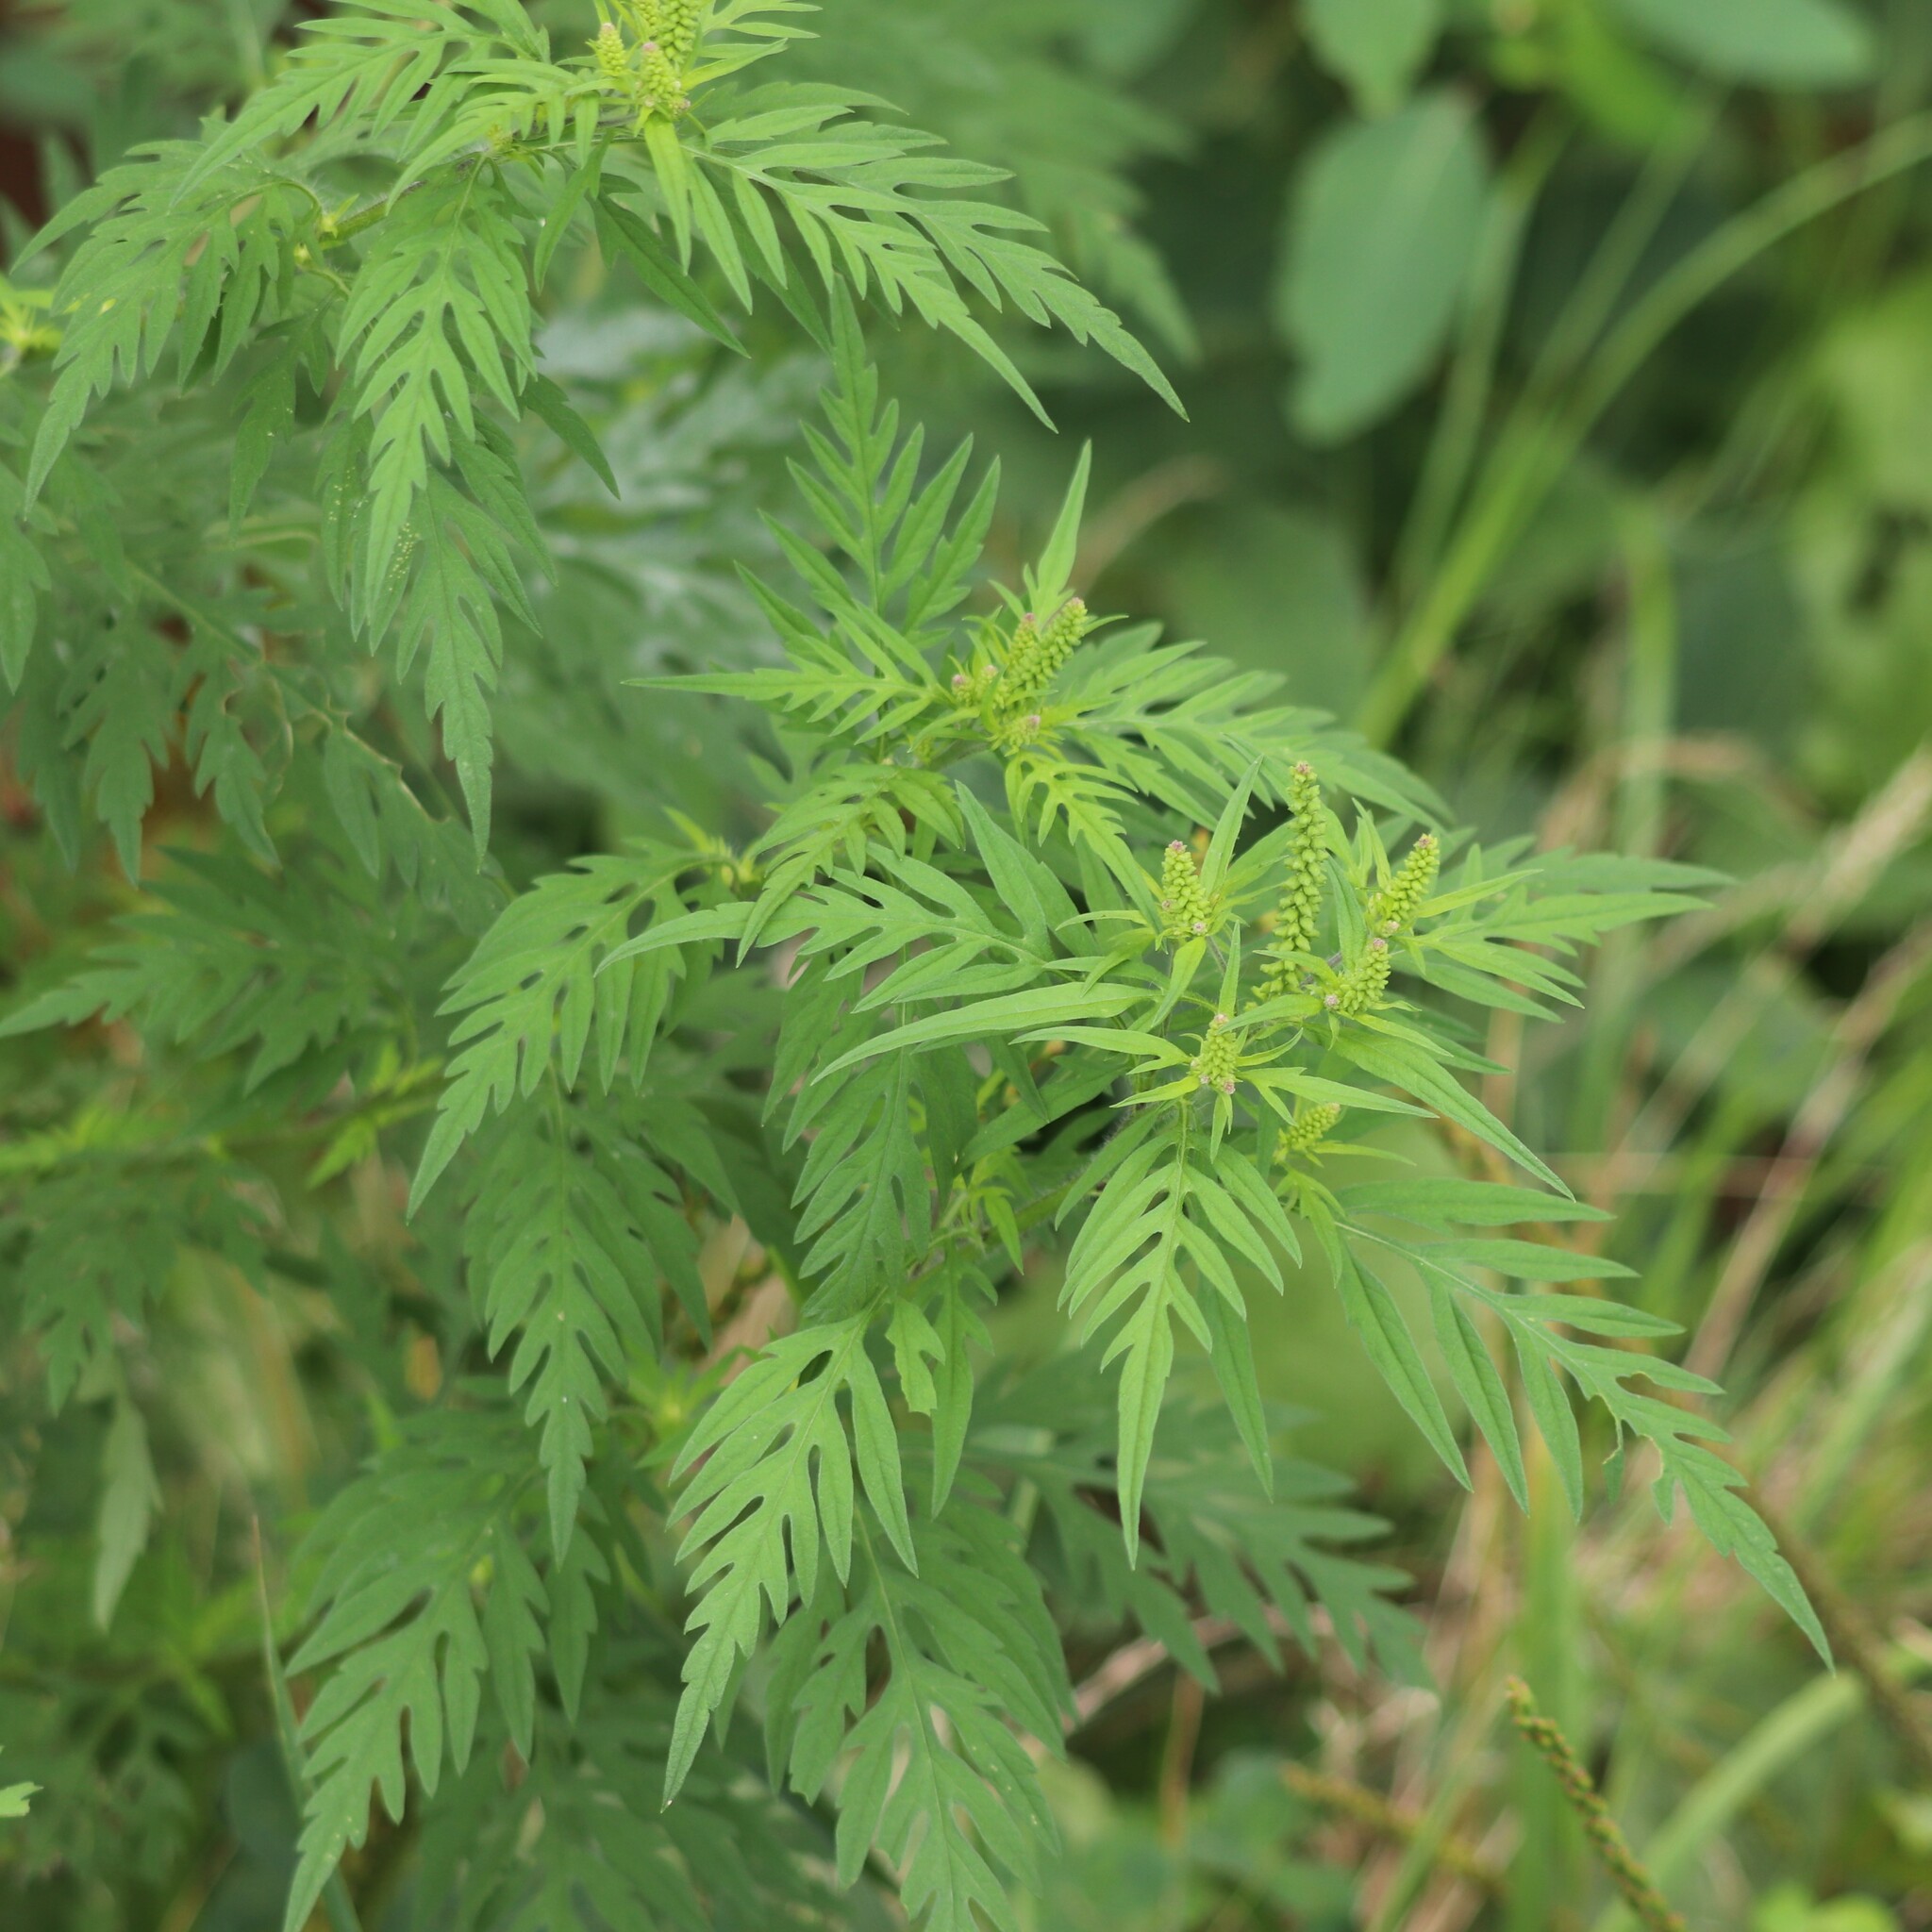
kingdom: Plantae
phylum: Tracheophyta
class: Magnoliopsida
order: Asterales
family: Asteraceae
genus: Ambrosia
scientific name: Ambrosia artemisiifolia
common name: Annual ragweed
